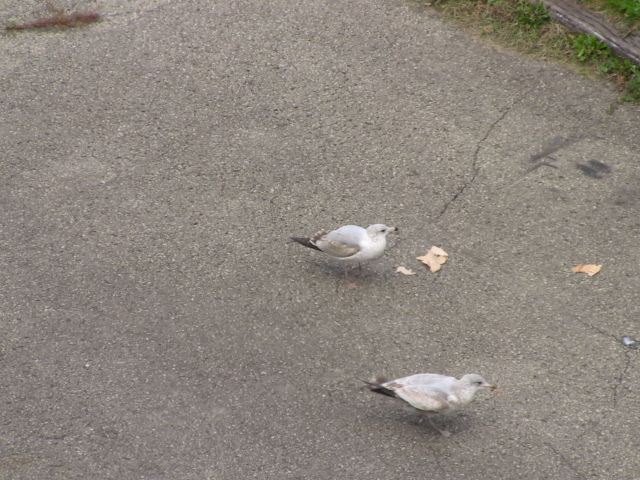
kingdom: Animalia
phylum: Chordata
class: Aves
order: Charadriiformes
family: Laridae
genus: Larus
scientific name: Larus delawarensis
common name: Ring-billed gull
